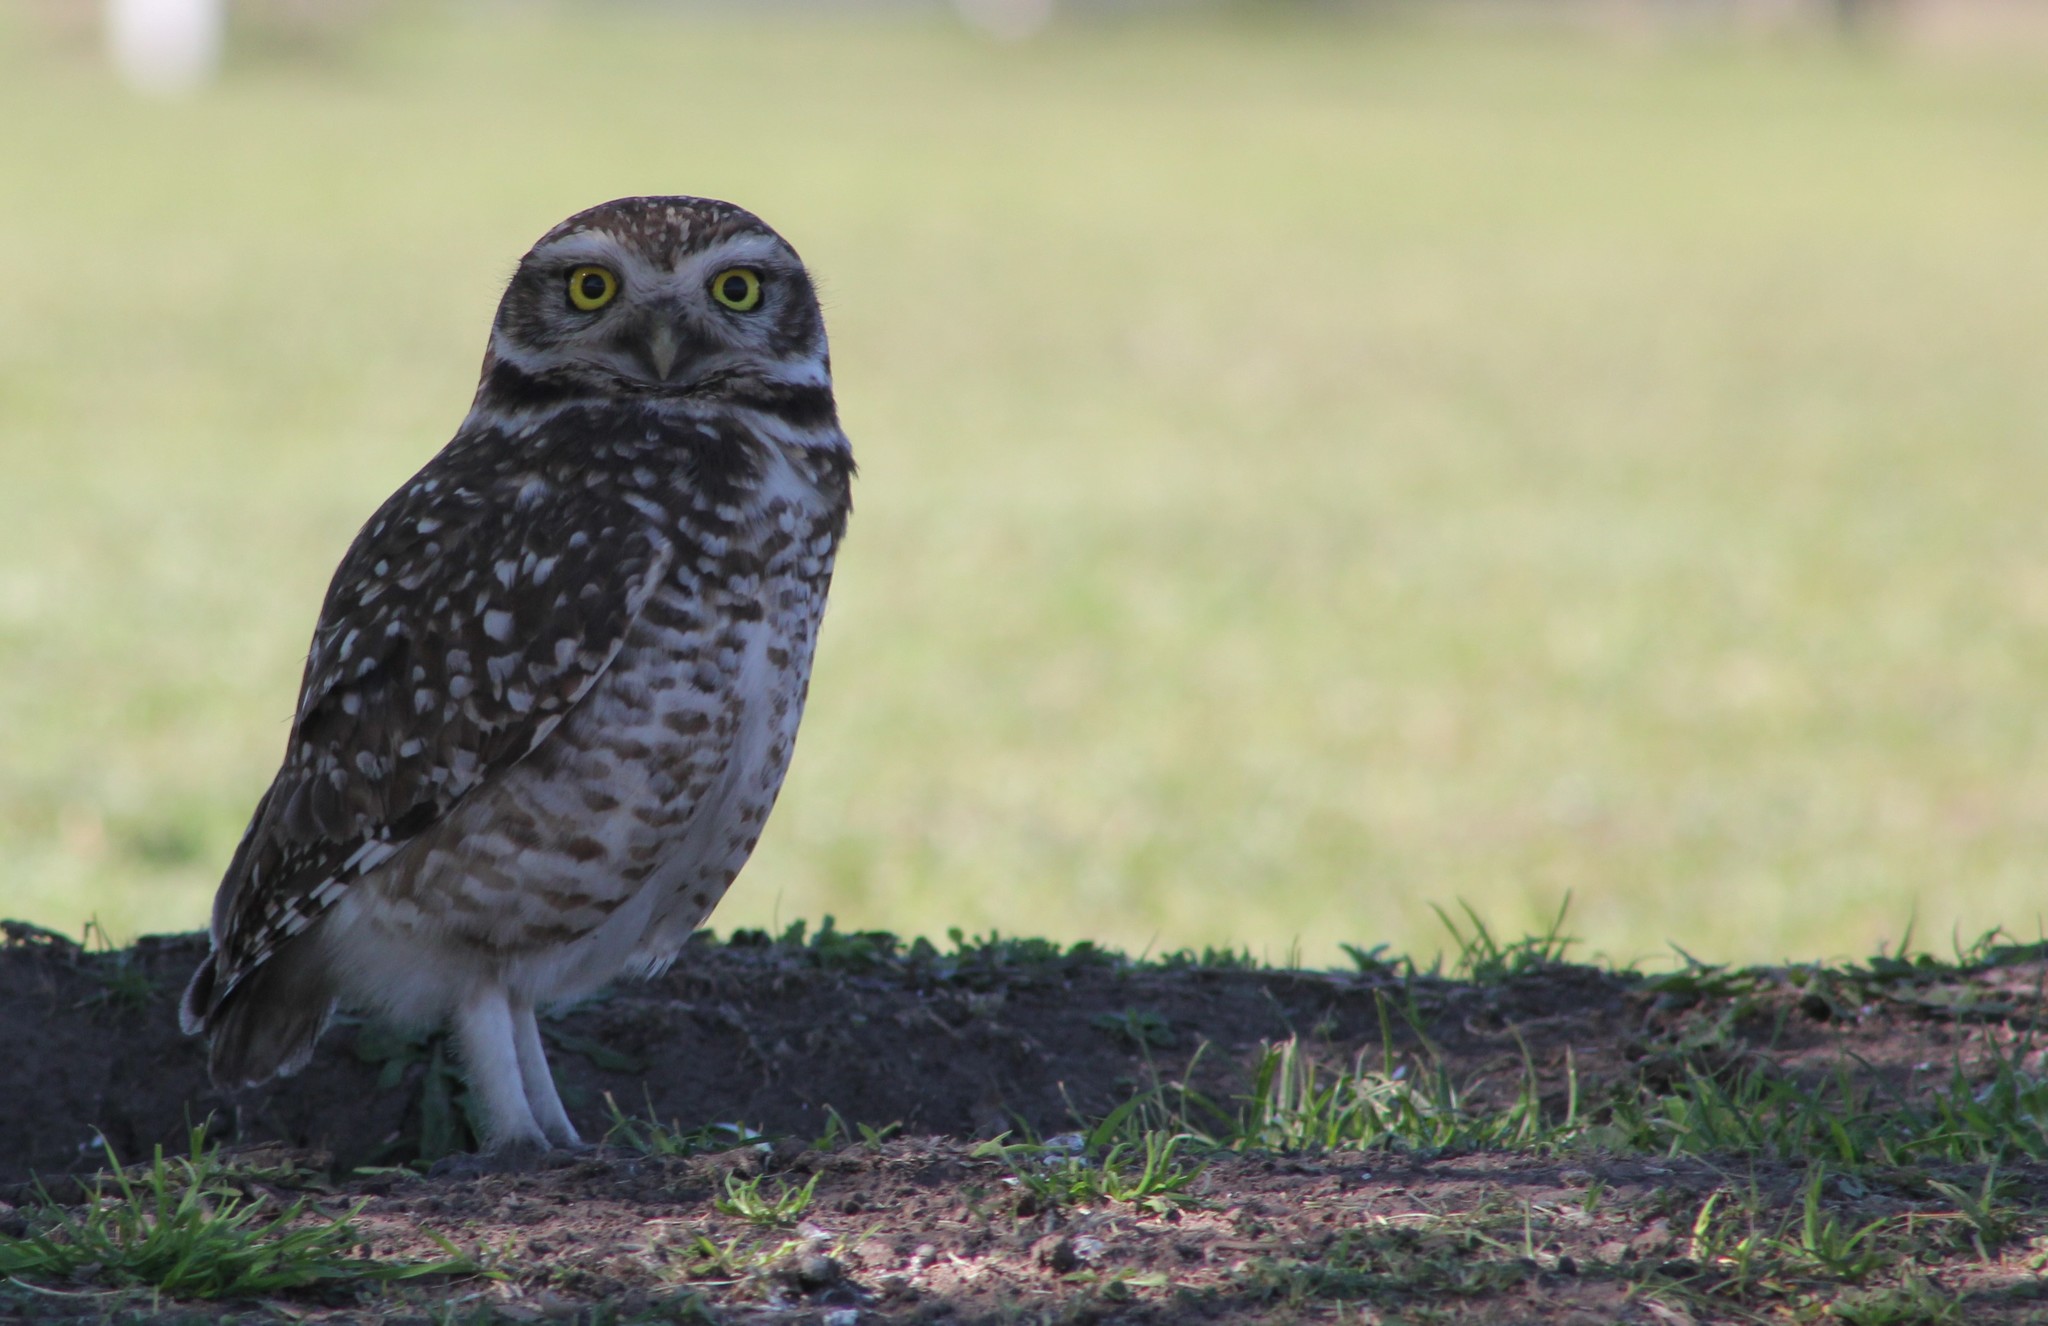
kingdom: Animalia
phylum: Chordata
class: Aves
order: Strigiformes
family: Strigidae
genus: Athene
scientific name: Athene cunicularia
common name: Burrowing owl
